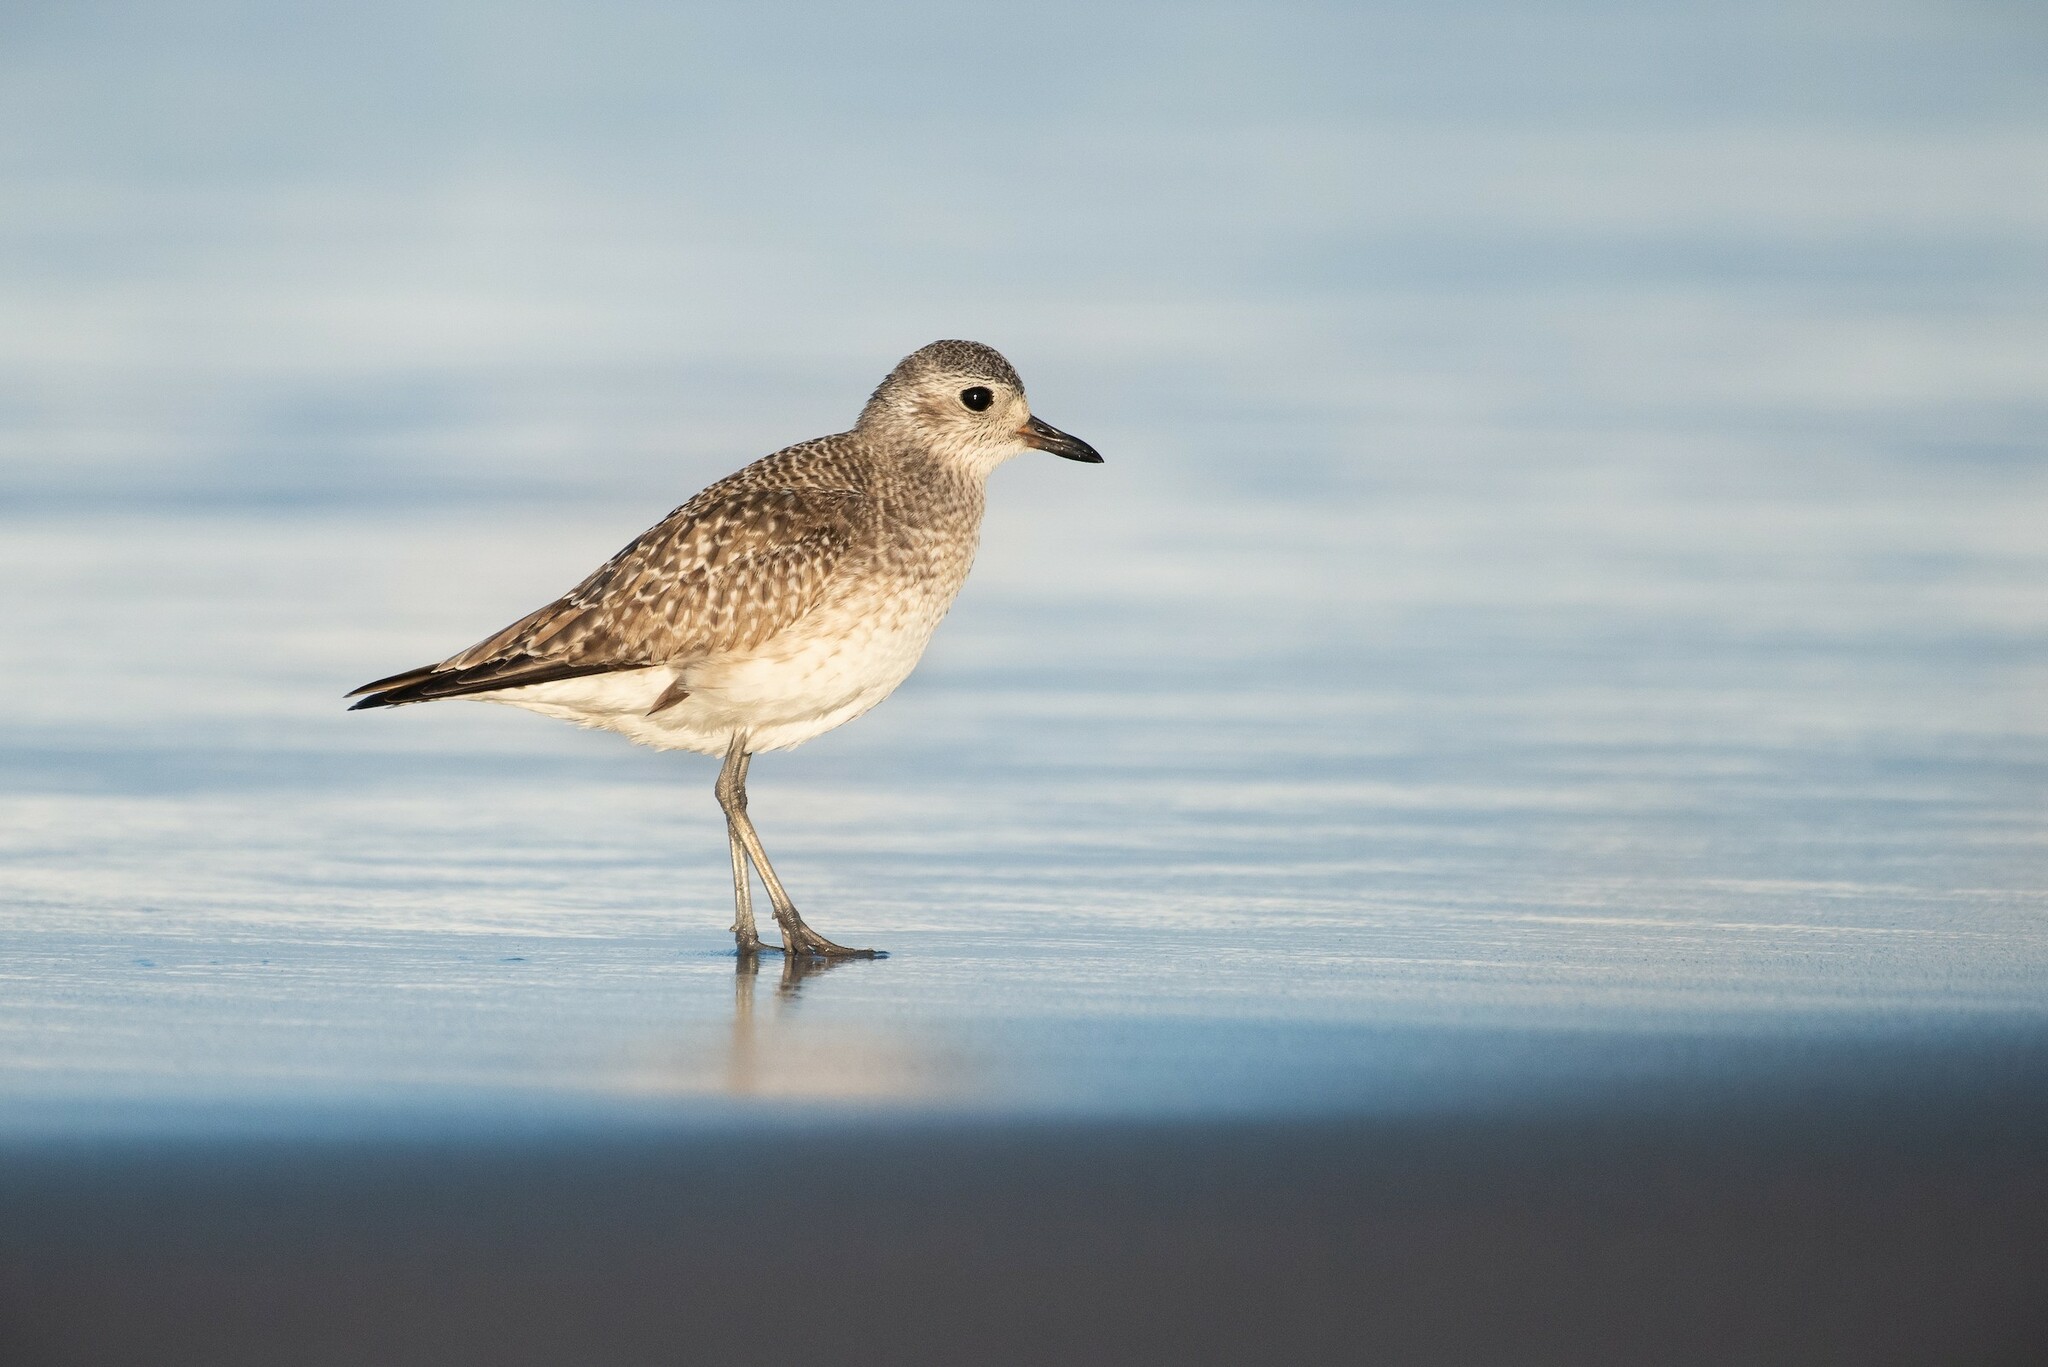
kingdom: Animalia
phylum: Chordata
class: Aves
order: Charadriiformes
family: Charadriidae
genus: Pluvialis
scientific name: Pluvialis squatarola
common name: Grey plover
